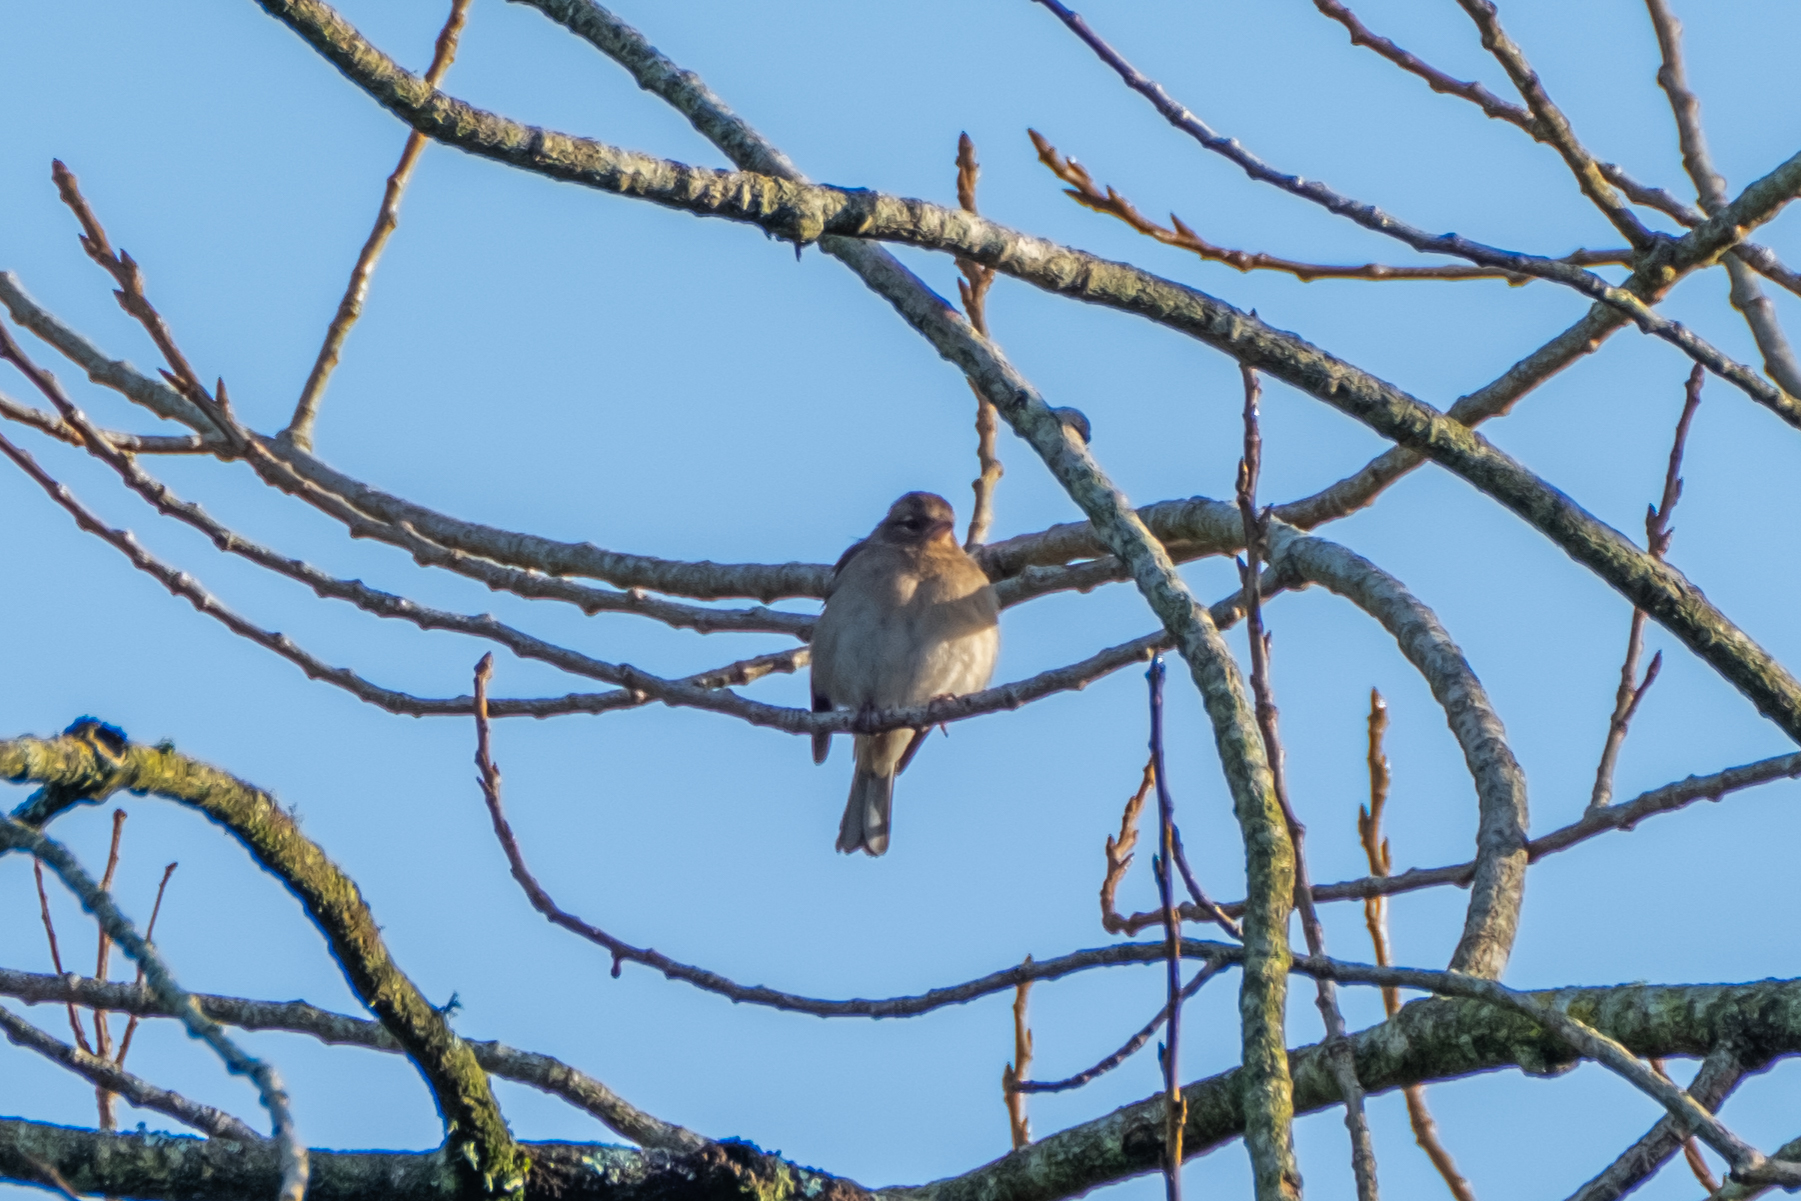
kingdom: Animalia
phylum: Chordata
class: Aves
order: Passeriformes
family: Fringillidae
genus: Fringilla
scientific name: Fringilla coelebs
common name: Common chaffinch
